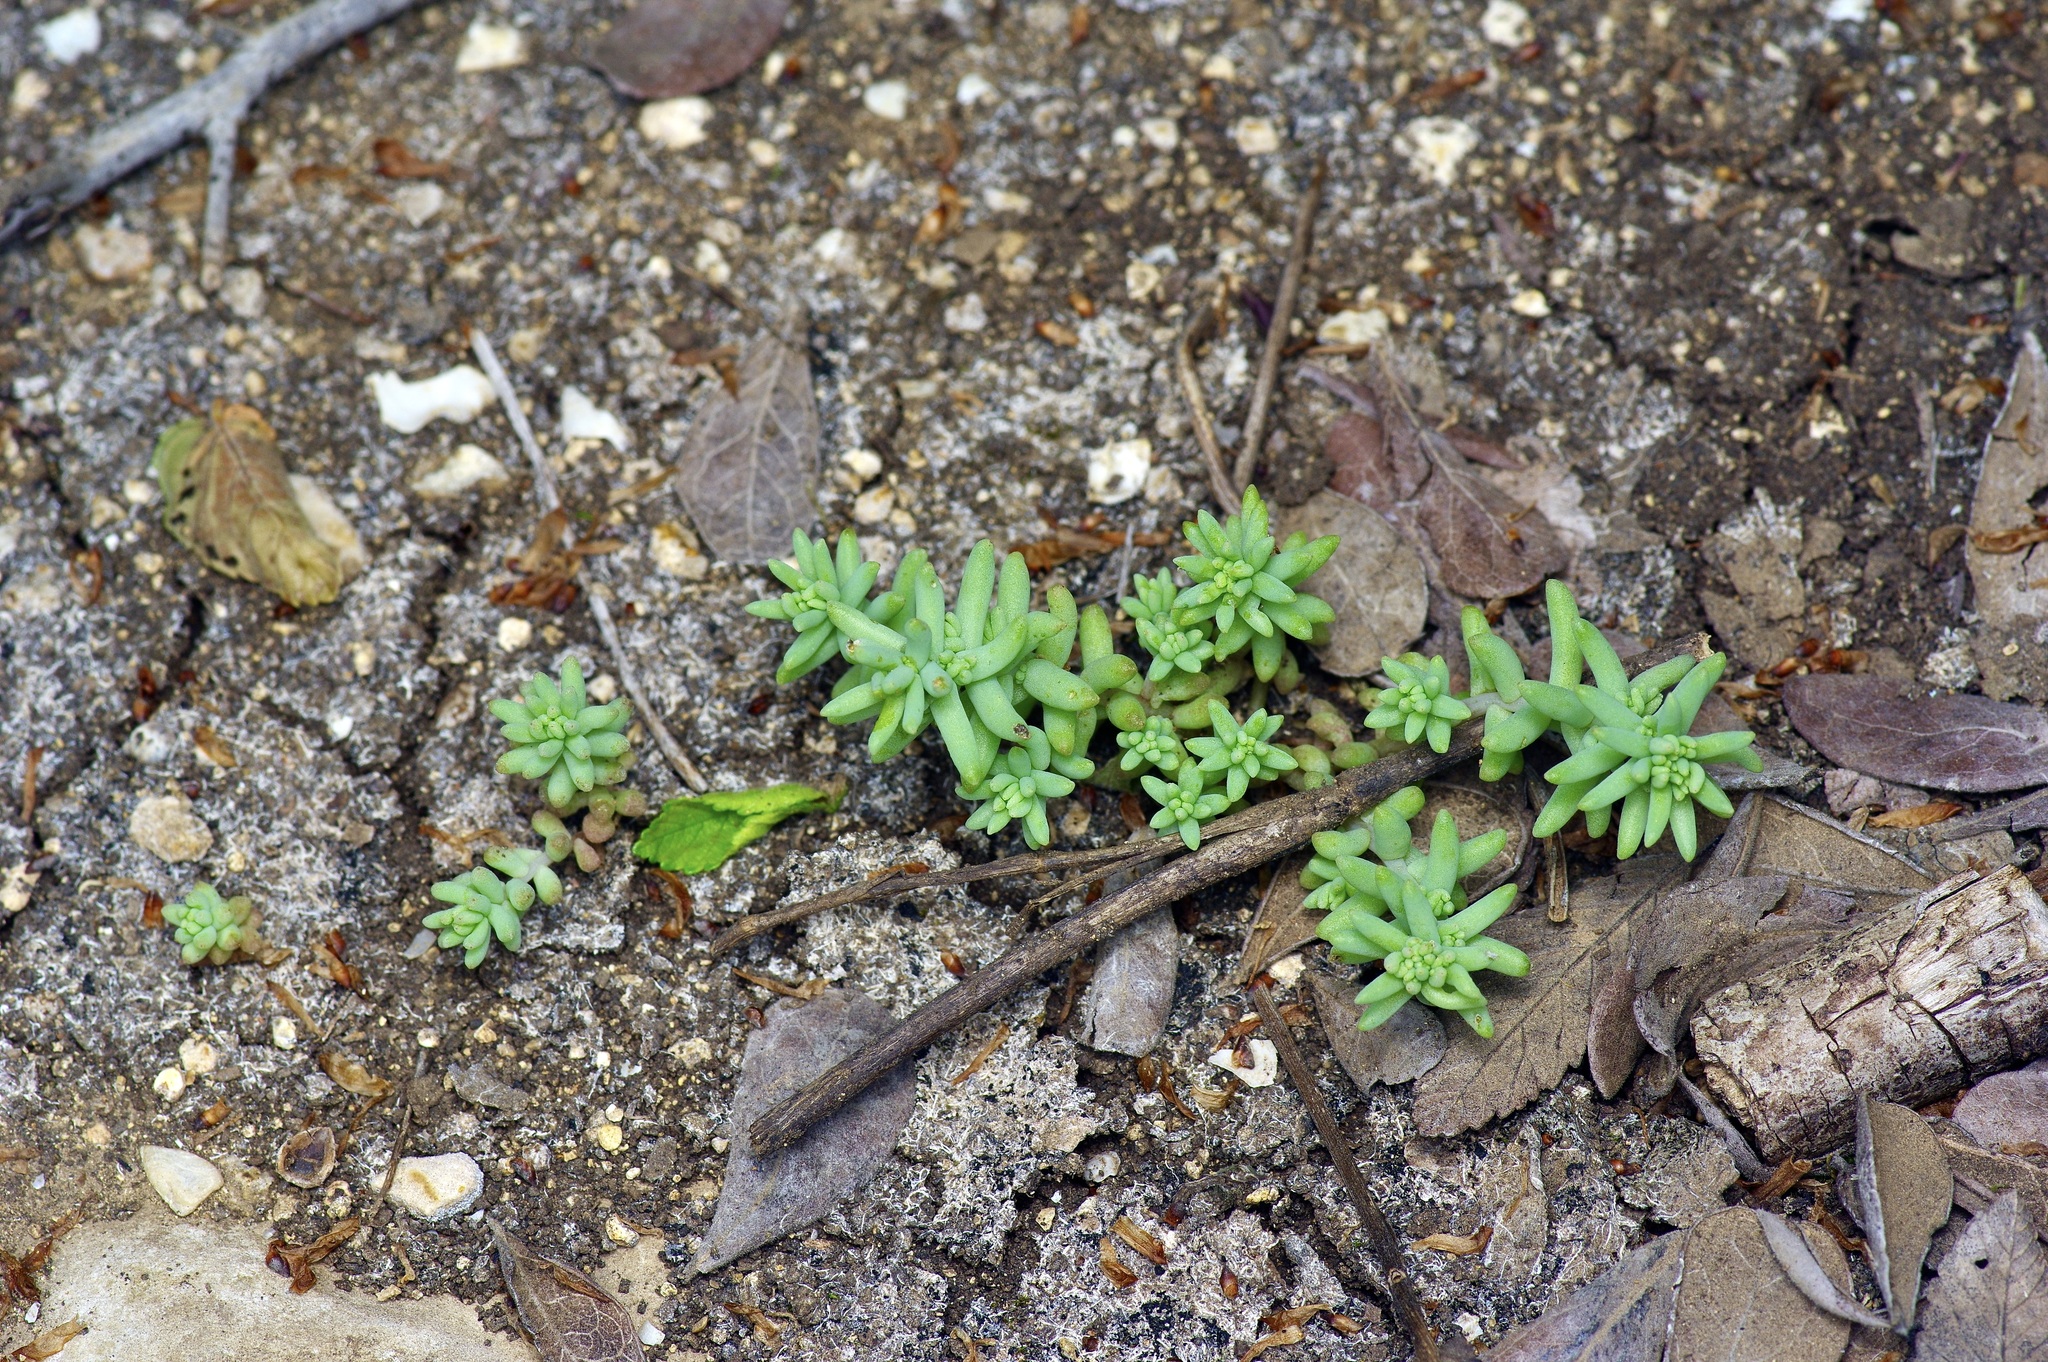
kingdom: Plantae
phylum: Tracheophyta
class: Magnoliopsida
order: Saxifragales
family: Crassulaceae
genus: Sedum
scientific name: Sedum nuttallii
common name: Yellow stonecrop
